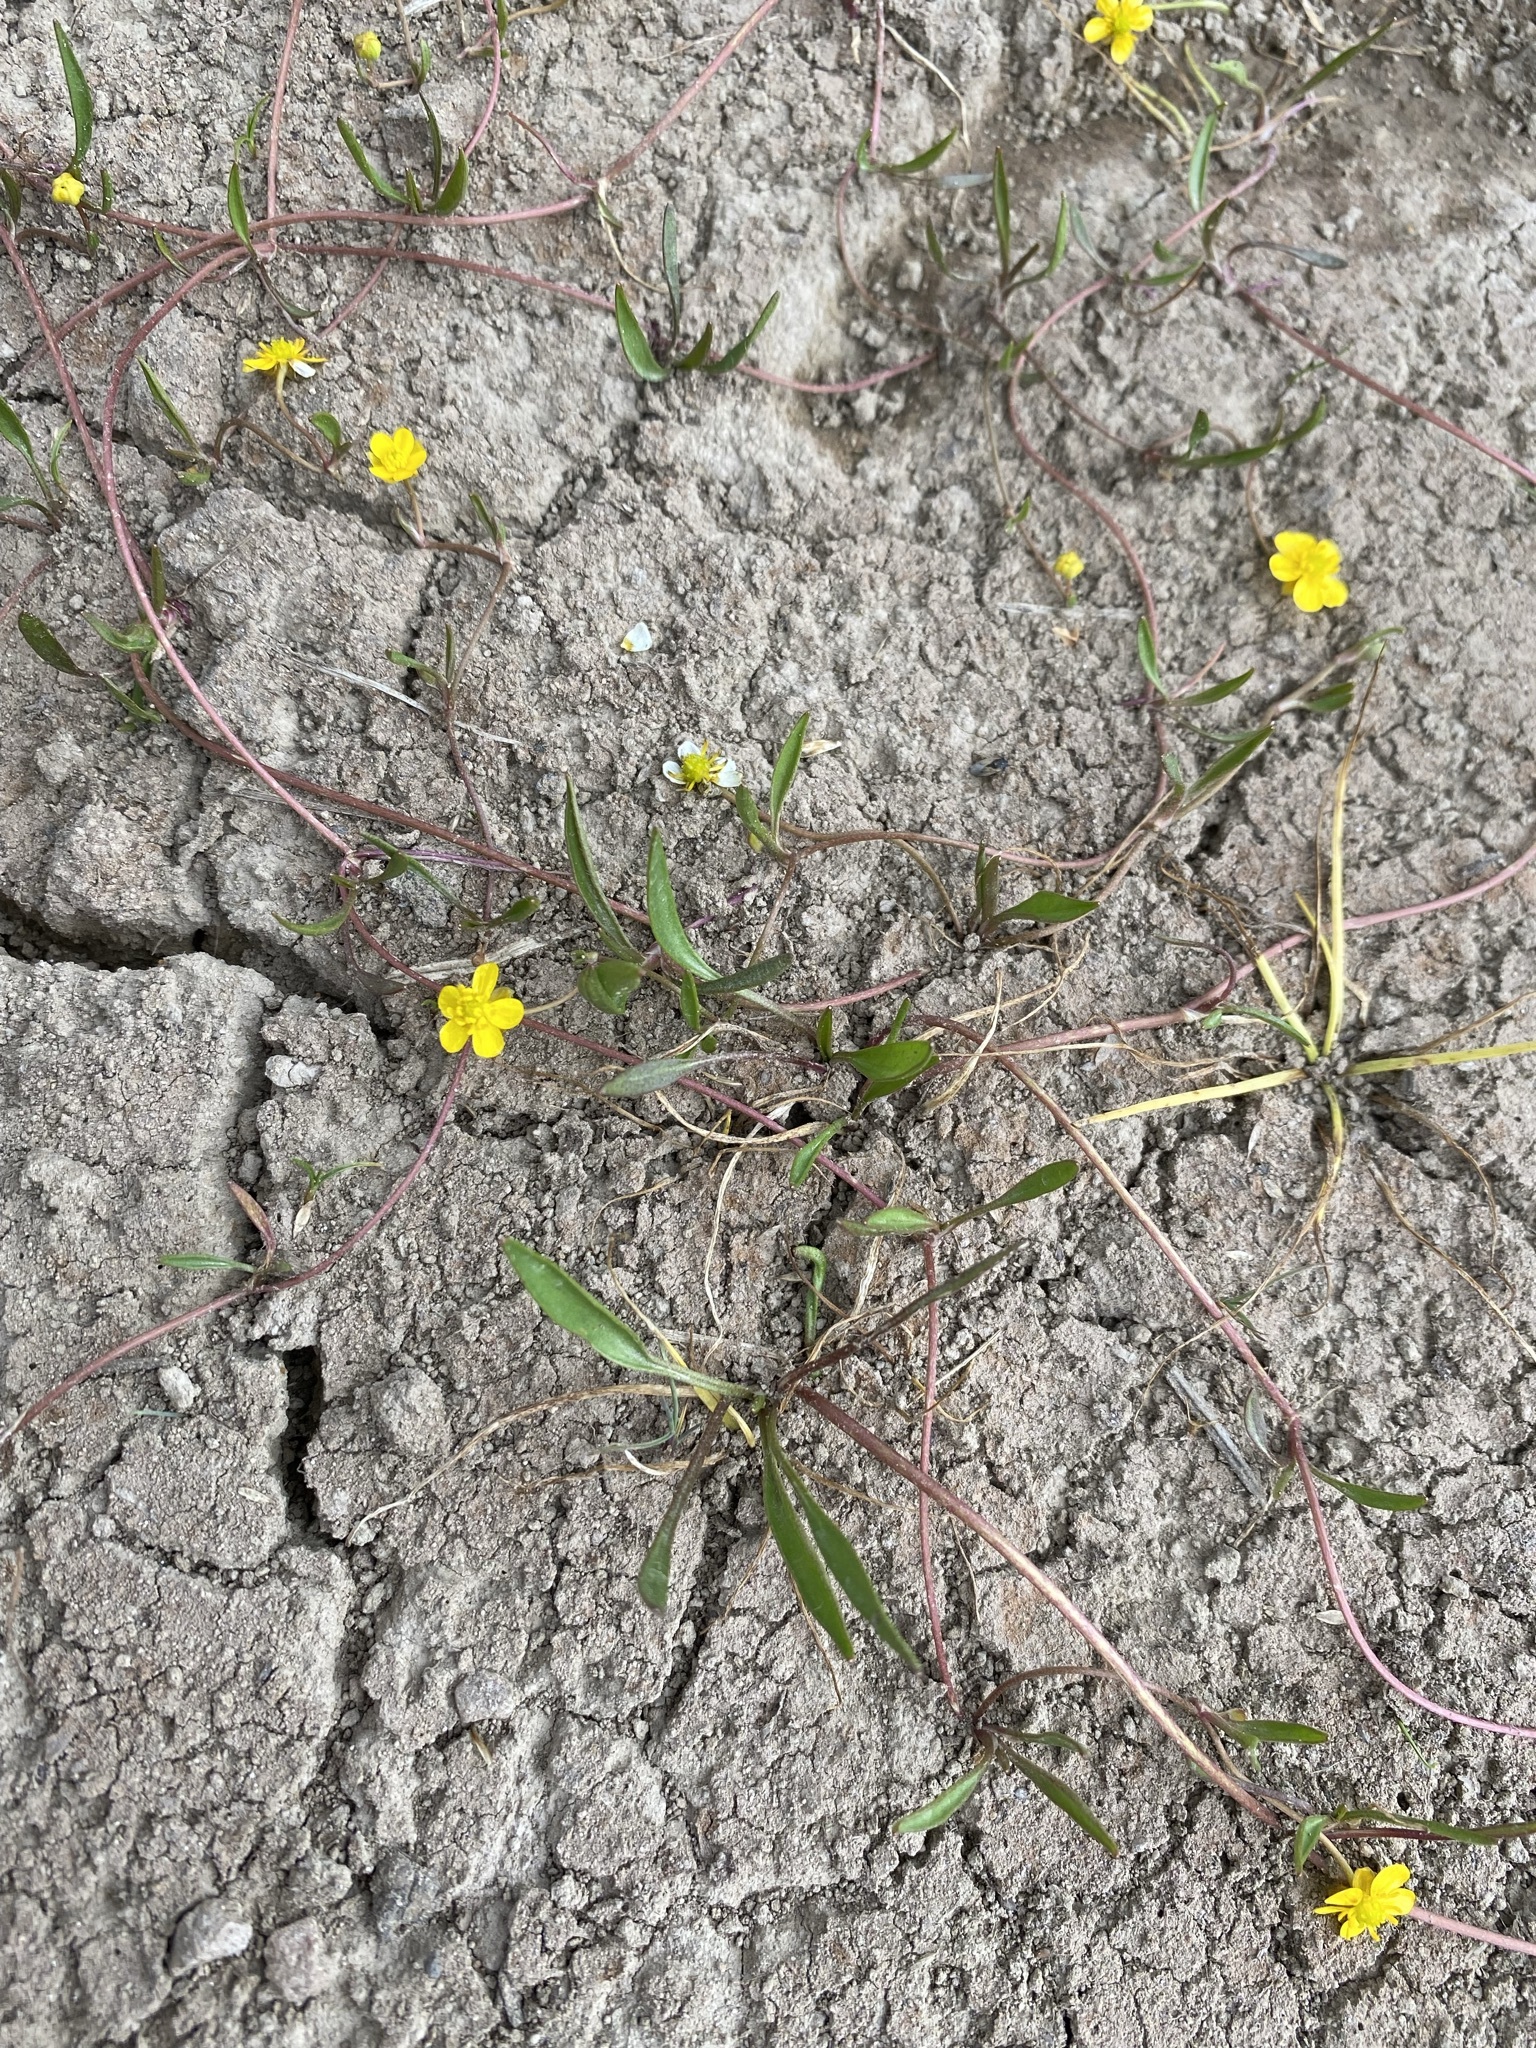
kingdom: Plantae
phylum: Tracheophyta
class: Magnoliopsida
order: Ranunculales
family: Ranunculaceae
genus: Ranunculus
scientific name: Ranunculus flammula
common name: Lesser spearwort
